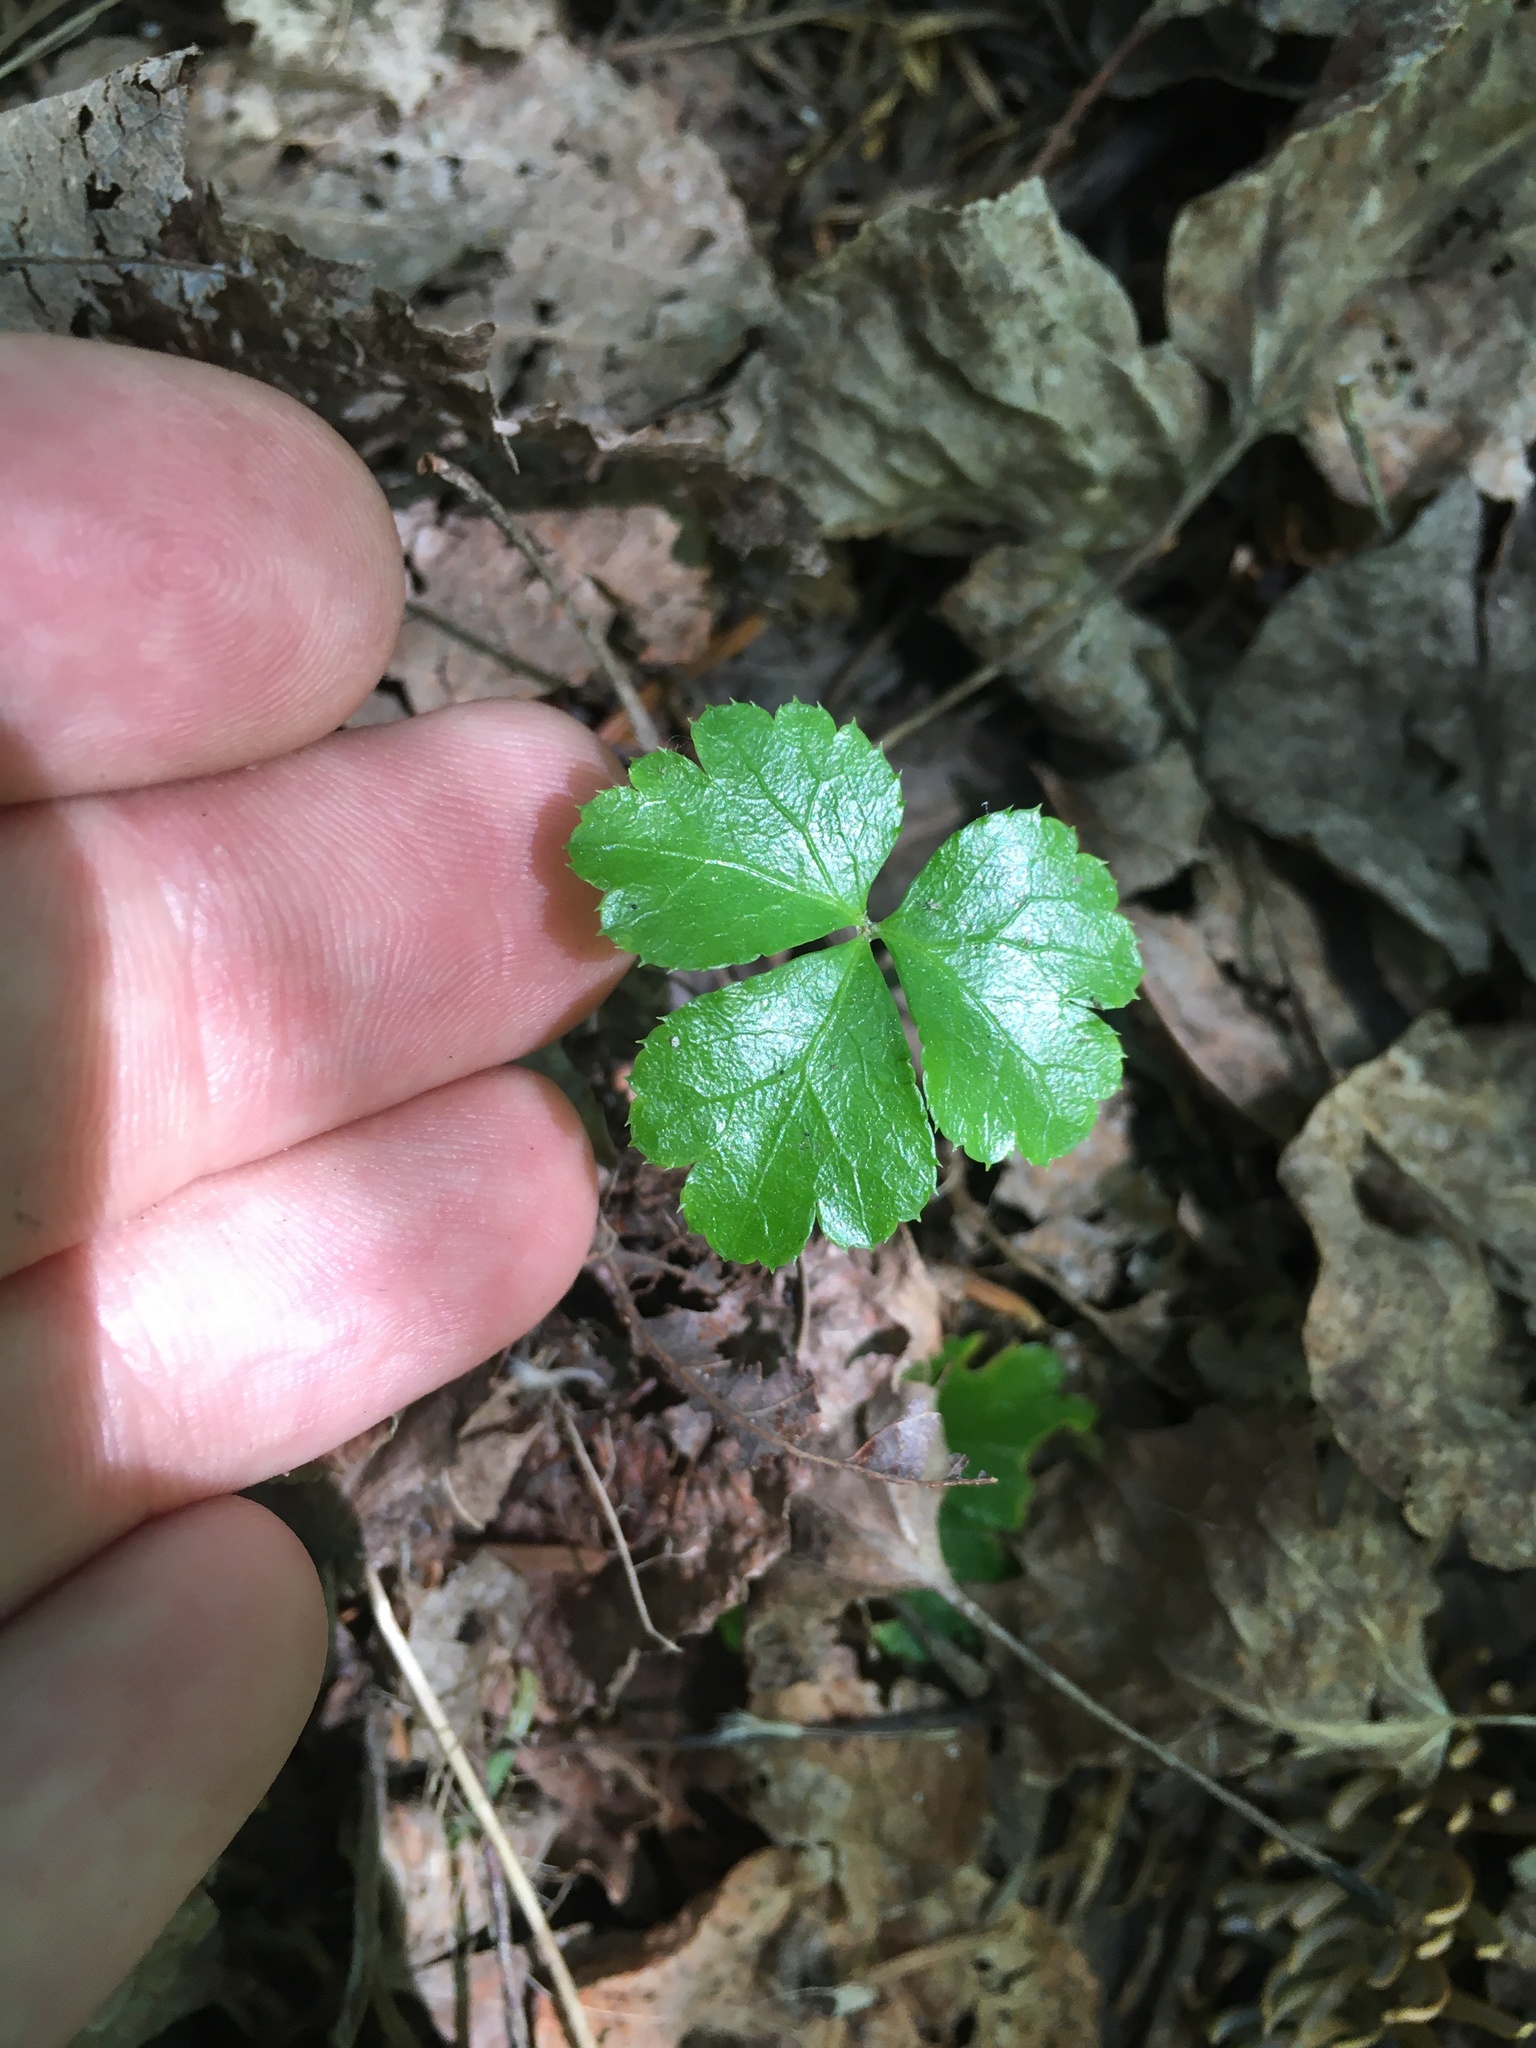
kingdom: Plantae
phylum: Tracheophyta
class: Magnoliopsida
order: Ranunculales
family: Ranunculaceae
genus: Coptis
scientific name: Coptis trifolia
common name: Canker-root
